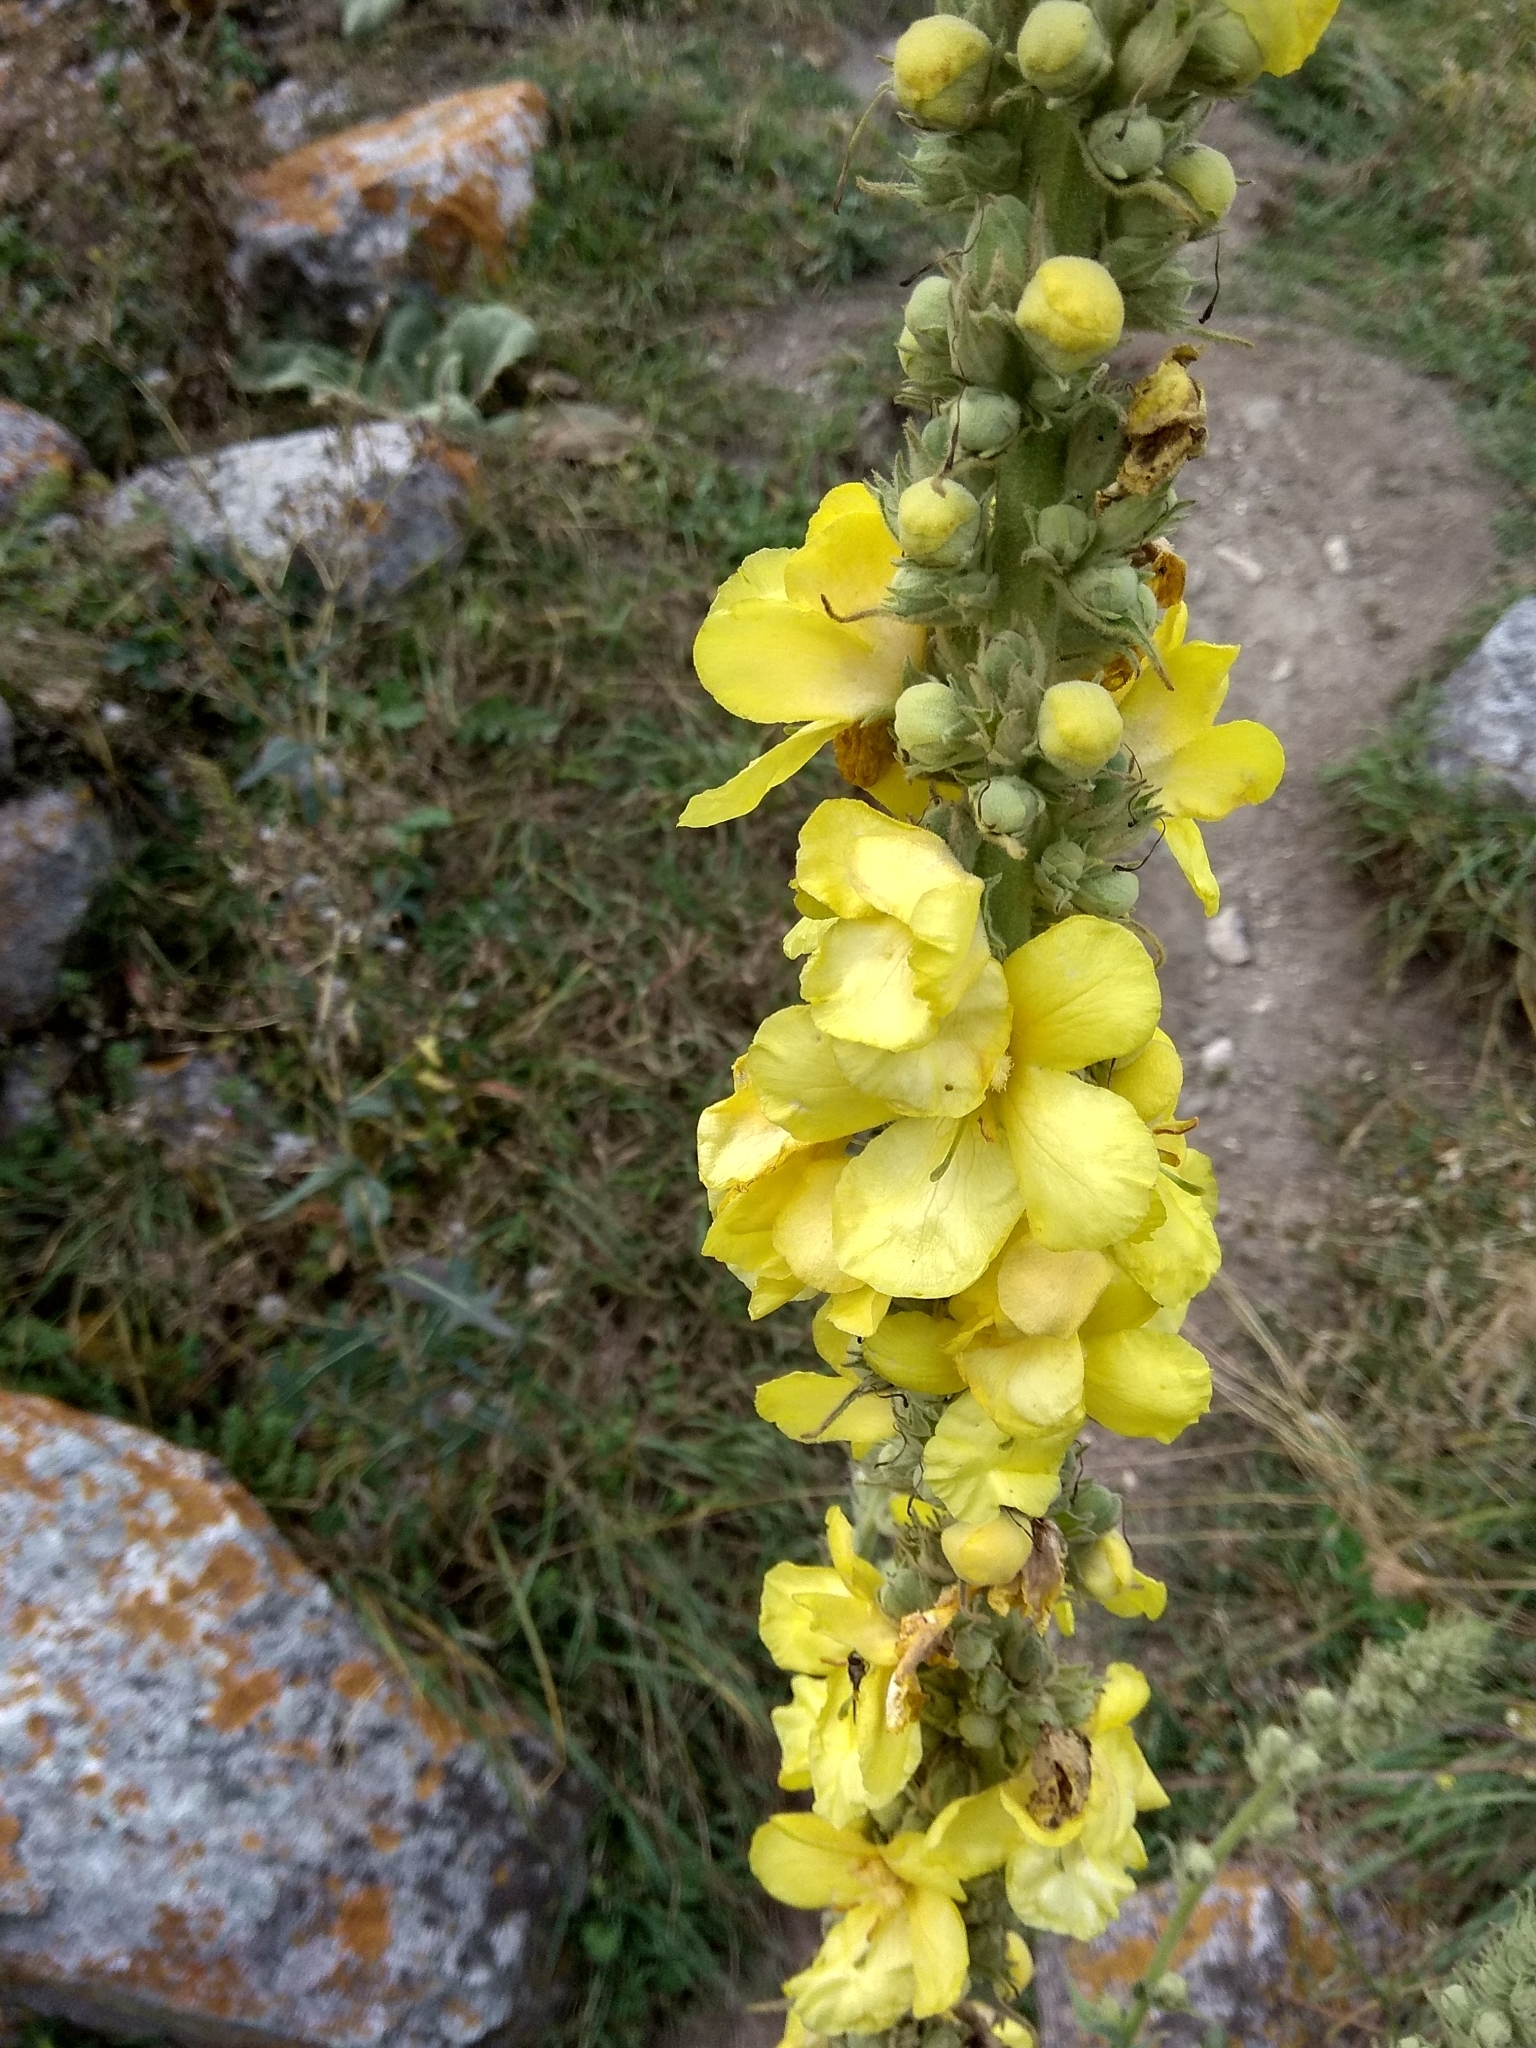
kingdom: Plantae
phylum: Tracheophyta
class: Magnoliopsida
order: Lamiales
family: Scrophulariaceae
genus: Verbascum
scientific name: Verbascum phlomoides
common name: Orange mullein
